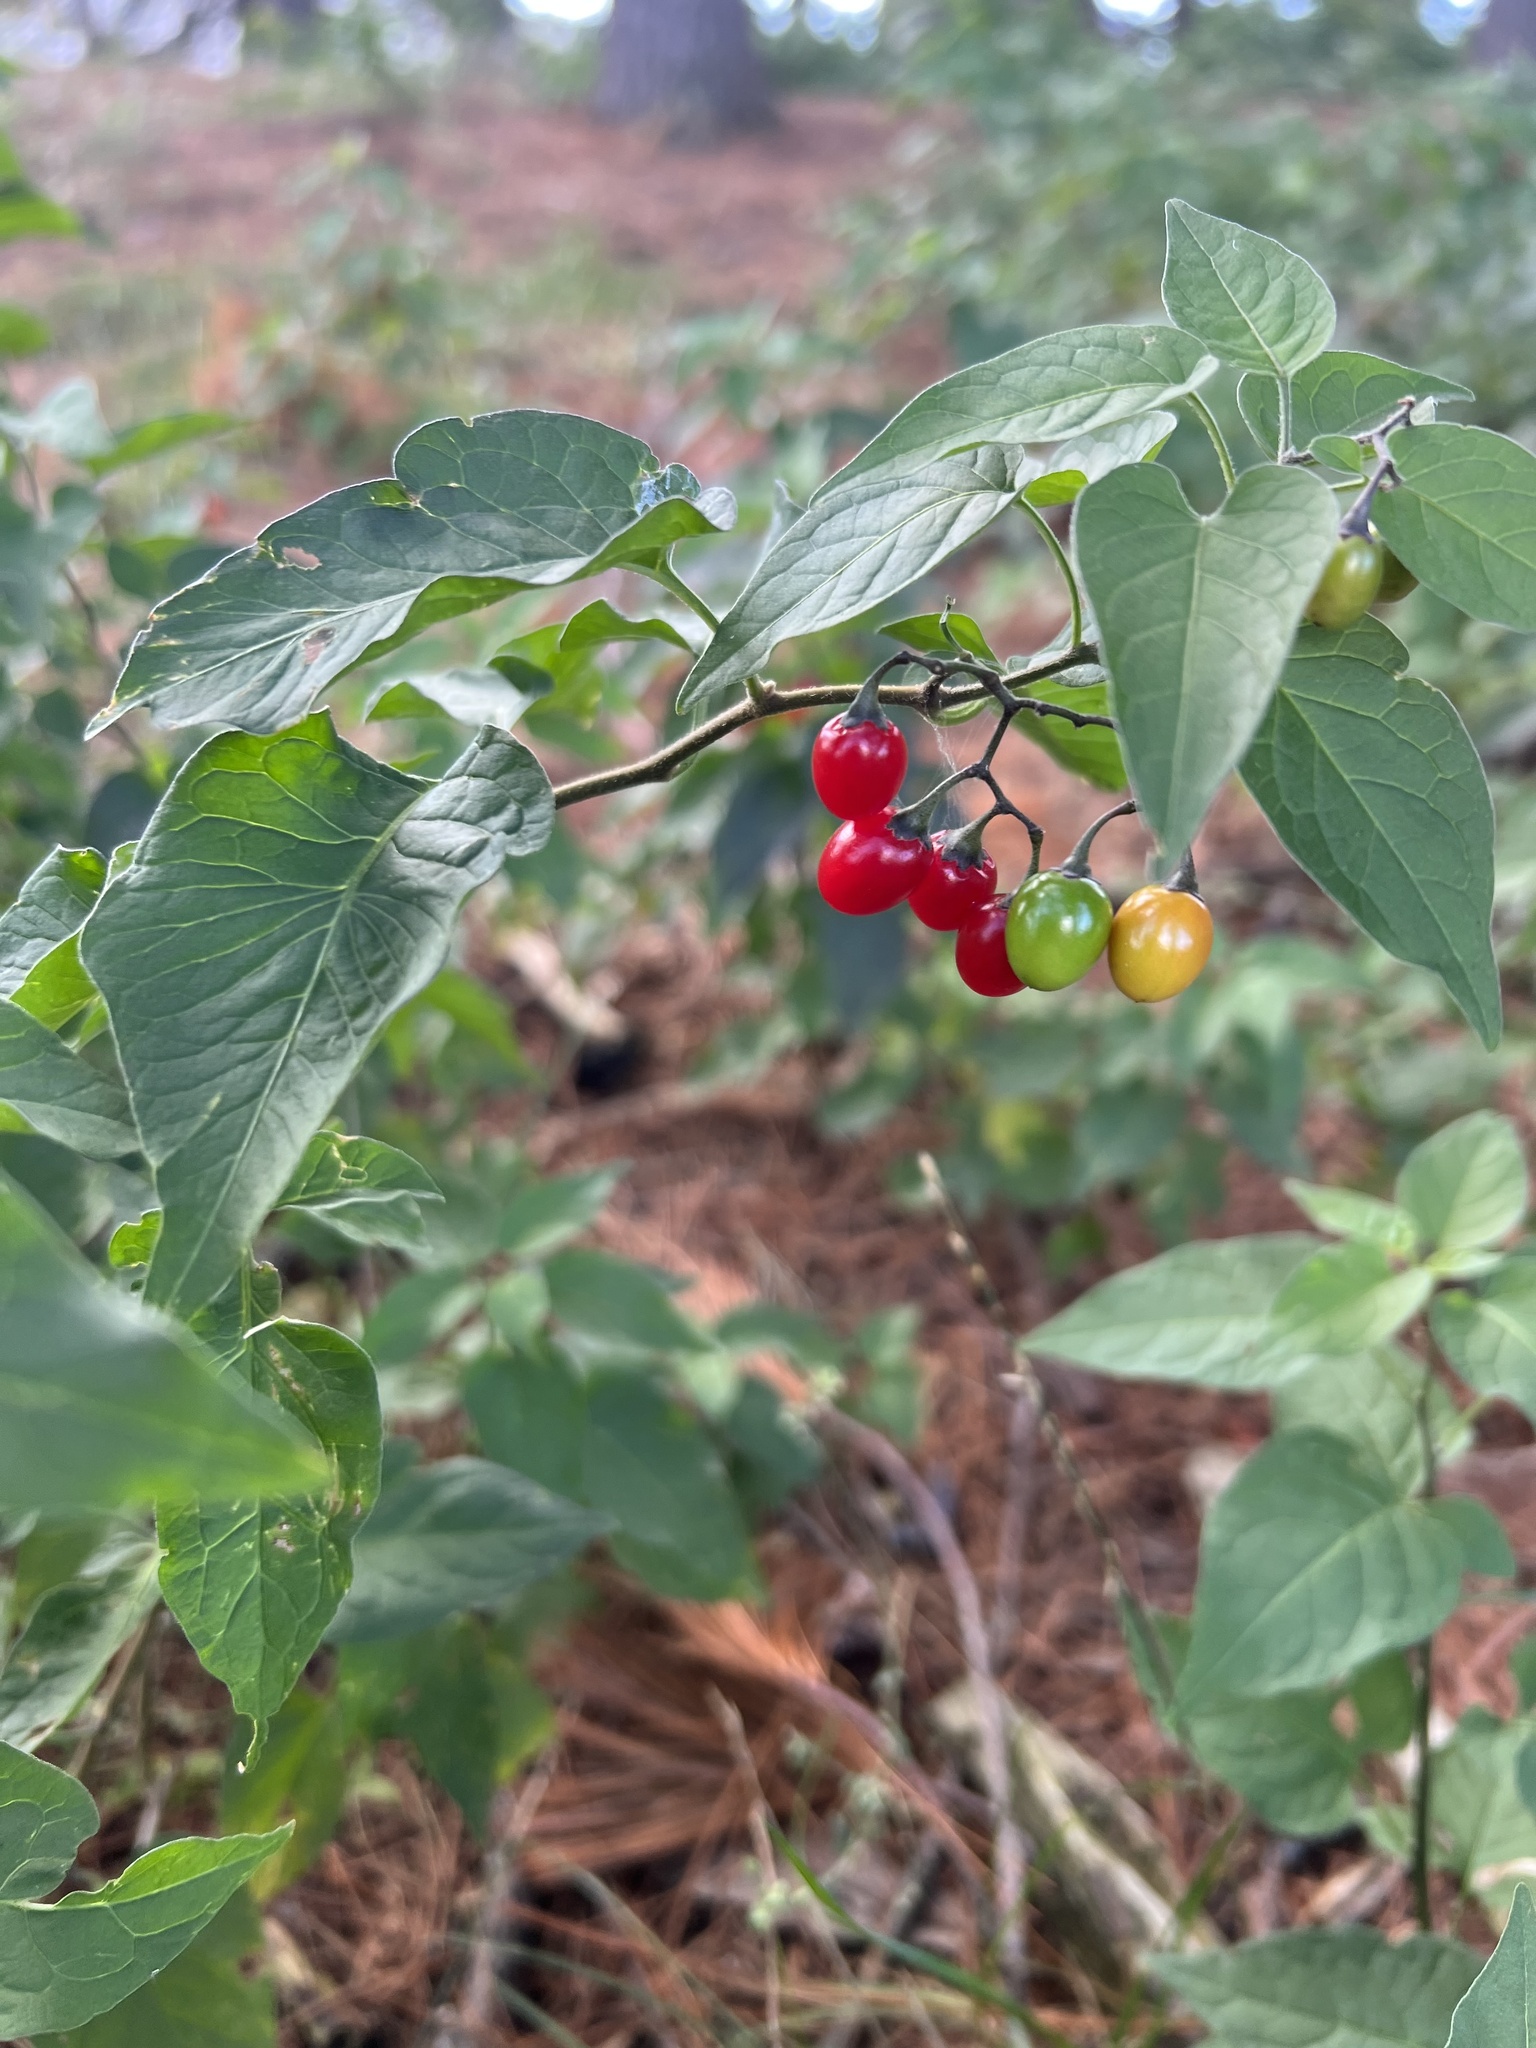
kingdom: Plantae
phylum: Tracheophyta
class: Magnoliopsida
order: Solanales
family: Solanaceae
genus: Solanum
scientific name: Solanum dulcamara
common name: Climbing nightshade
